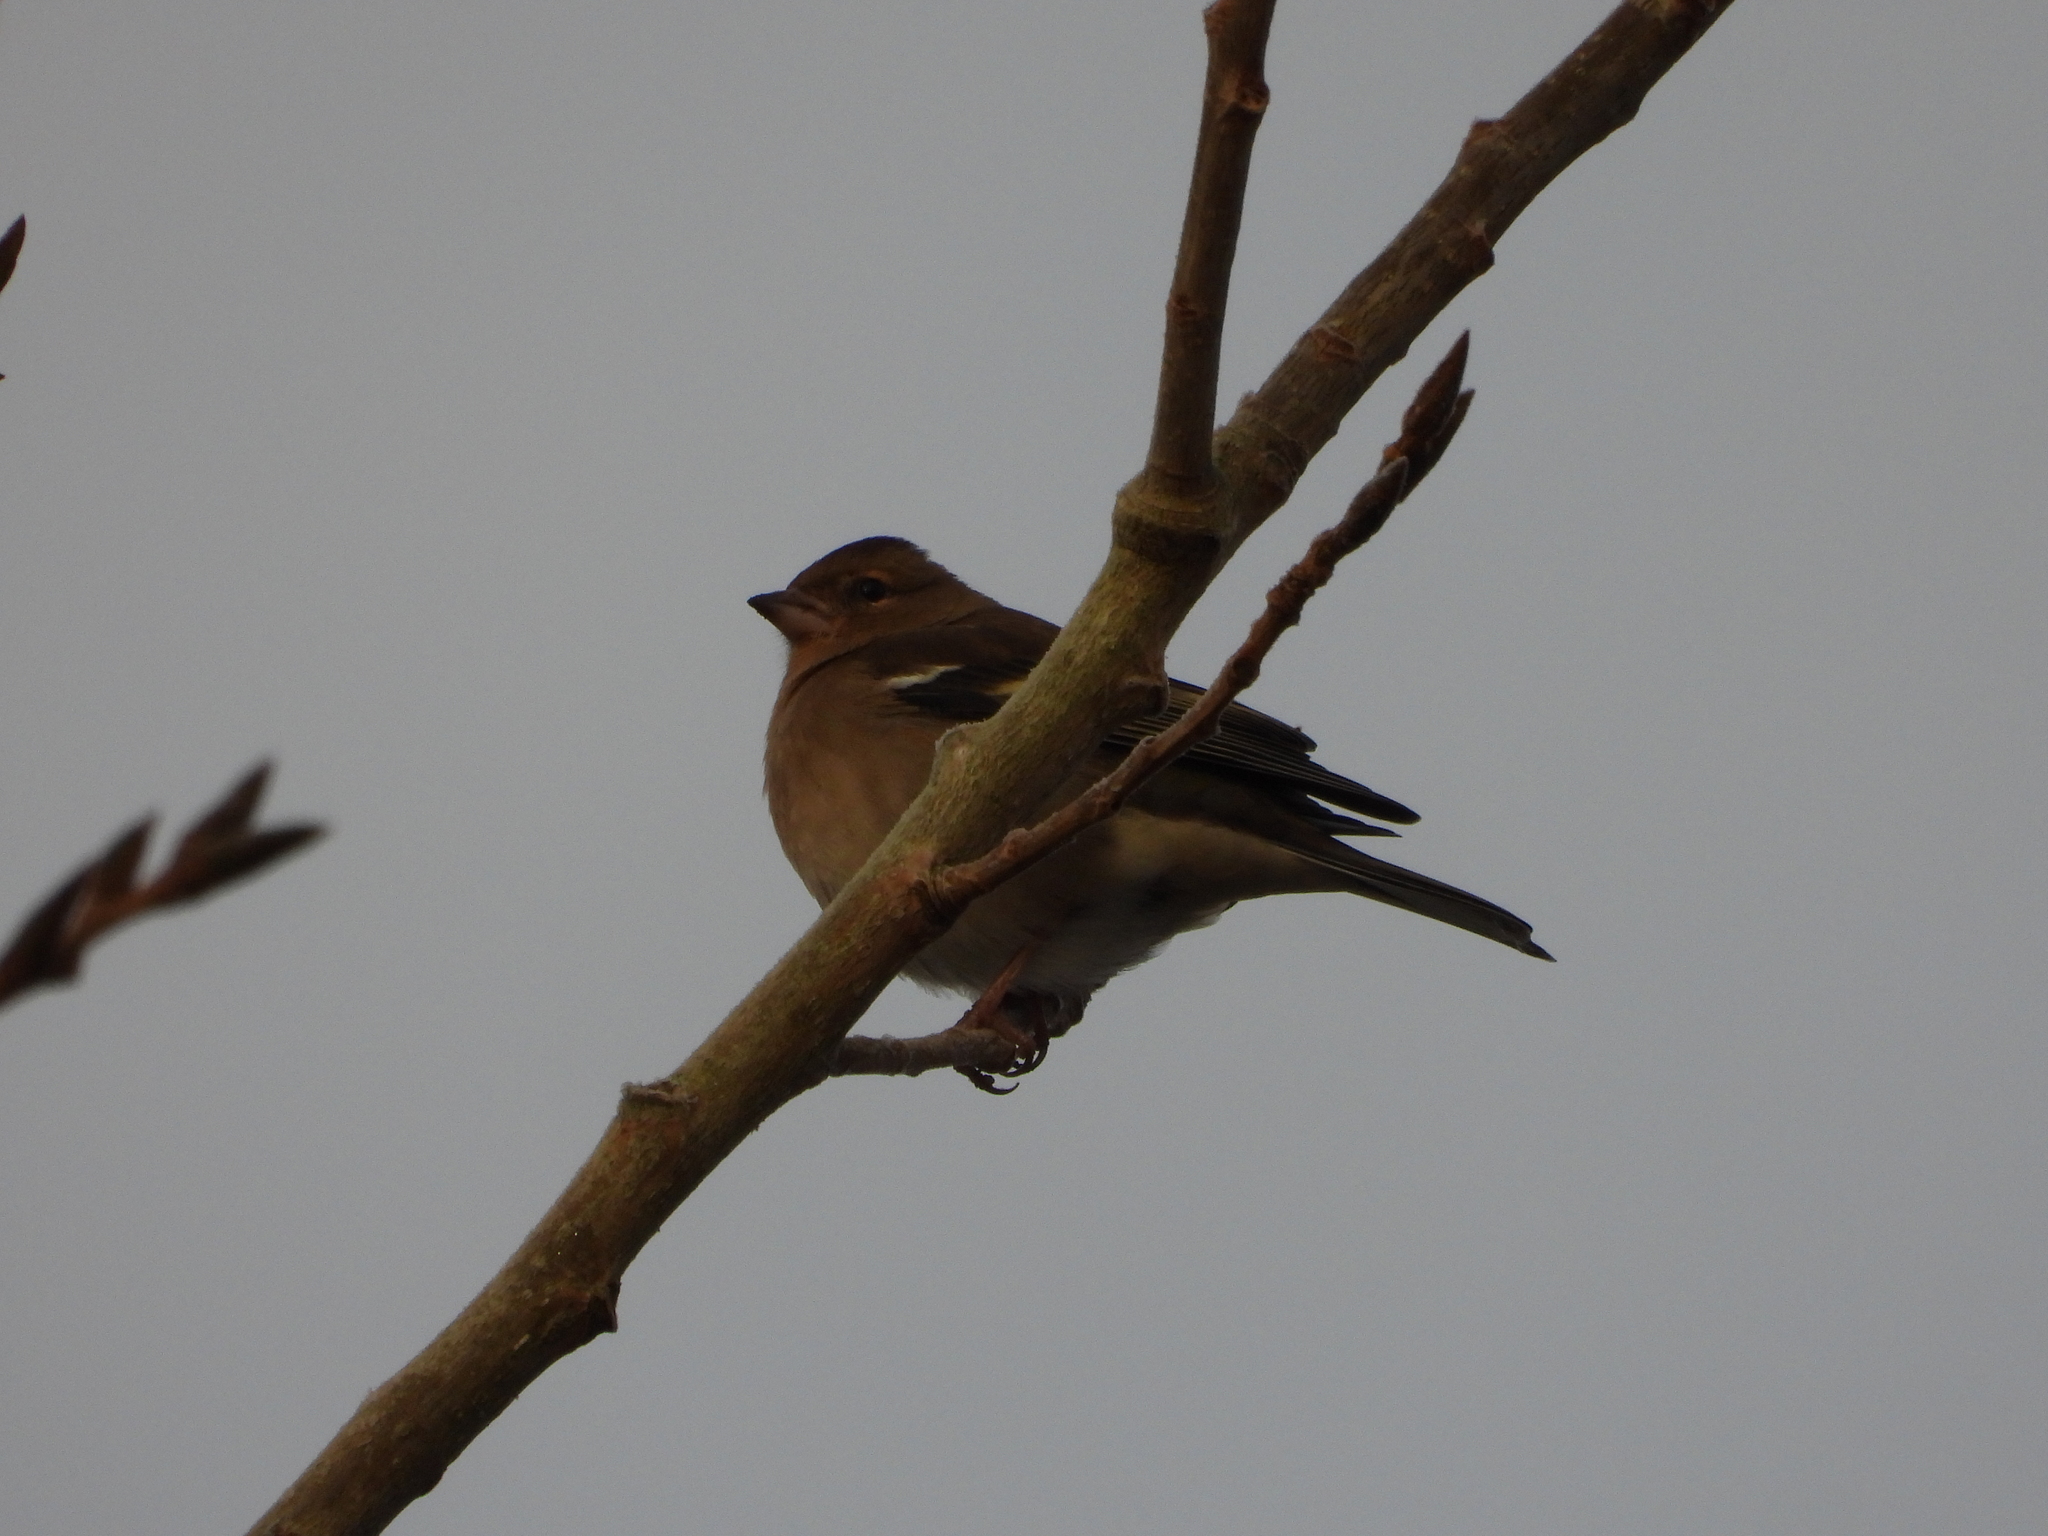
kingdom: Animalia
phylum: Chordata
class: Aves
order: Passeriformes
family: Fringillidae
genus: Fringilla
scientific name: Fringilla coelebs
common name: Common chaffinch
